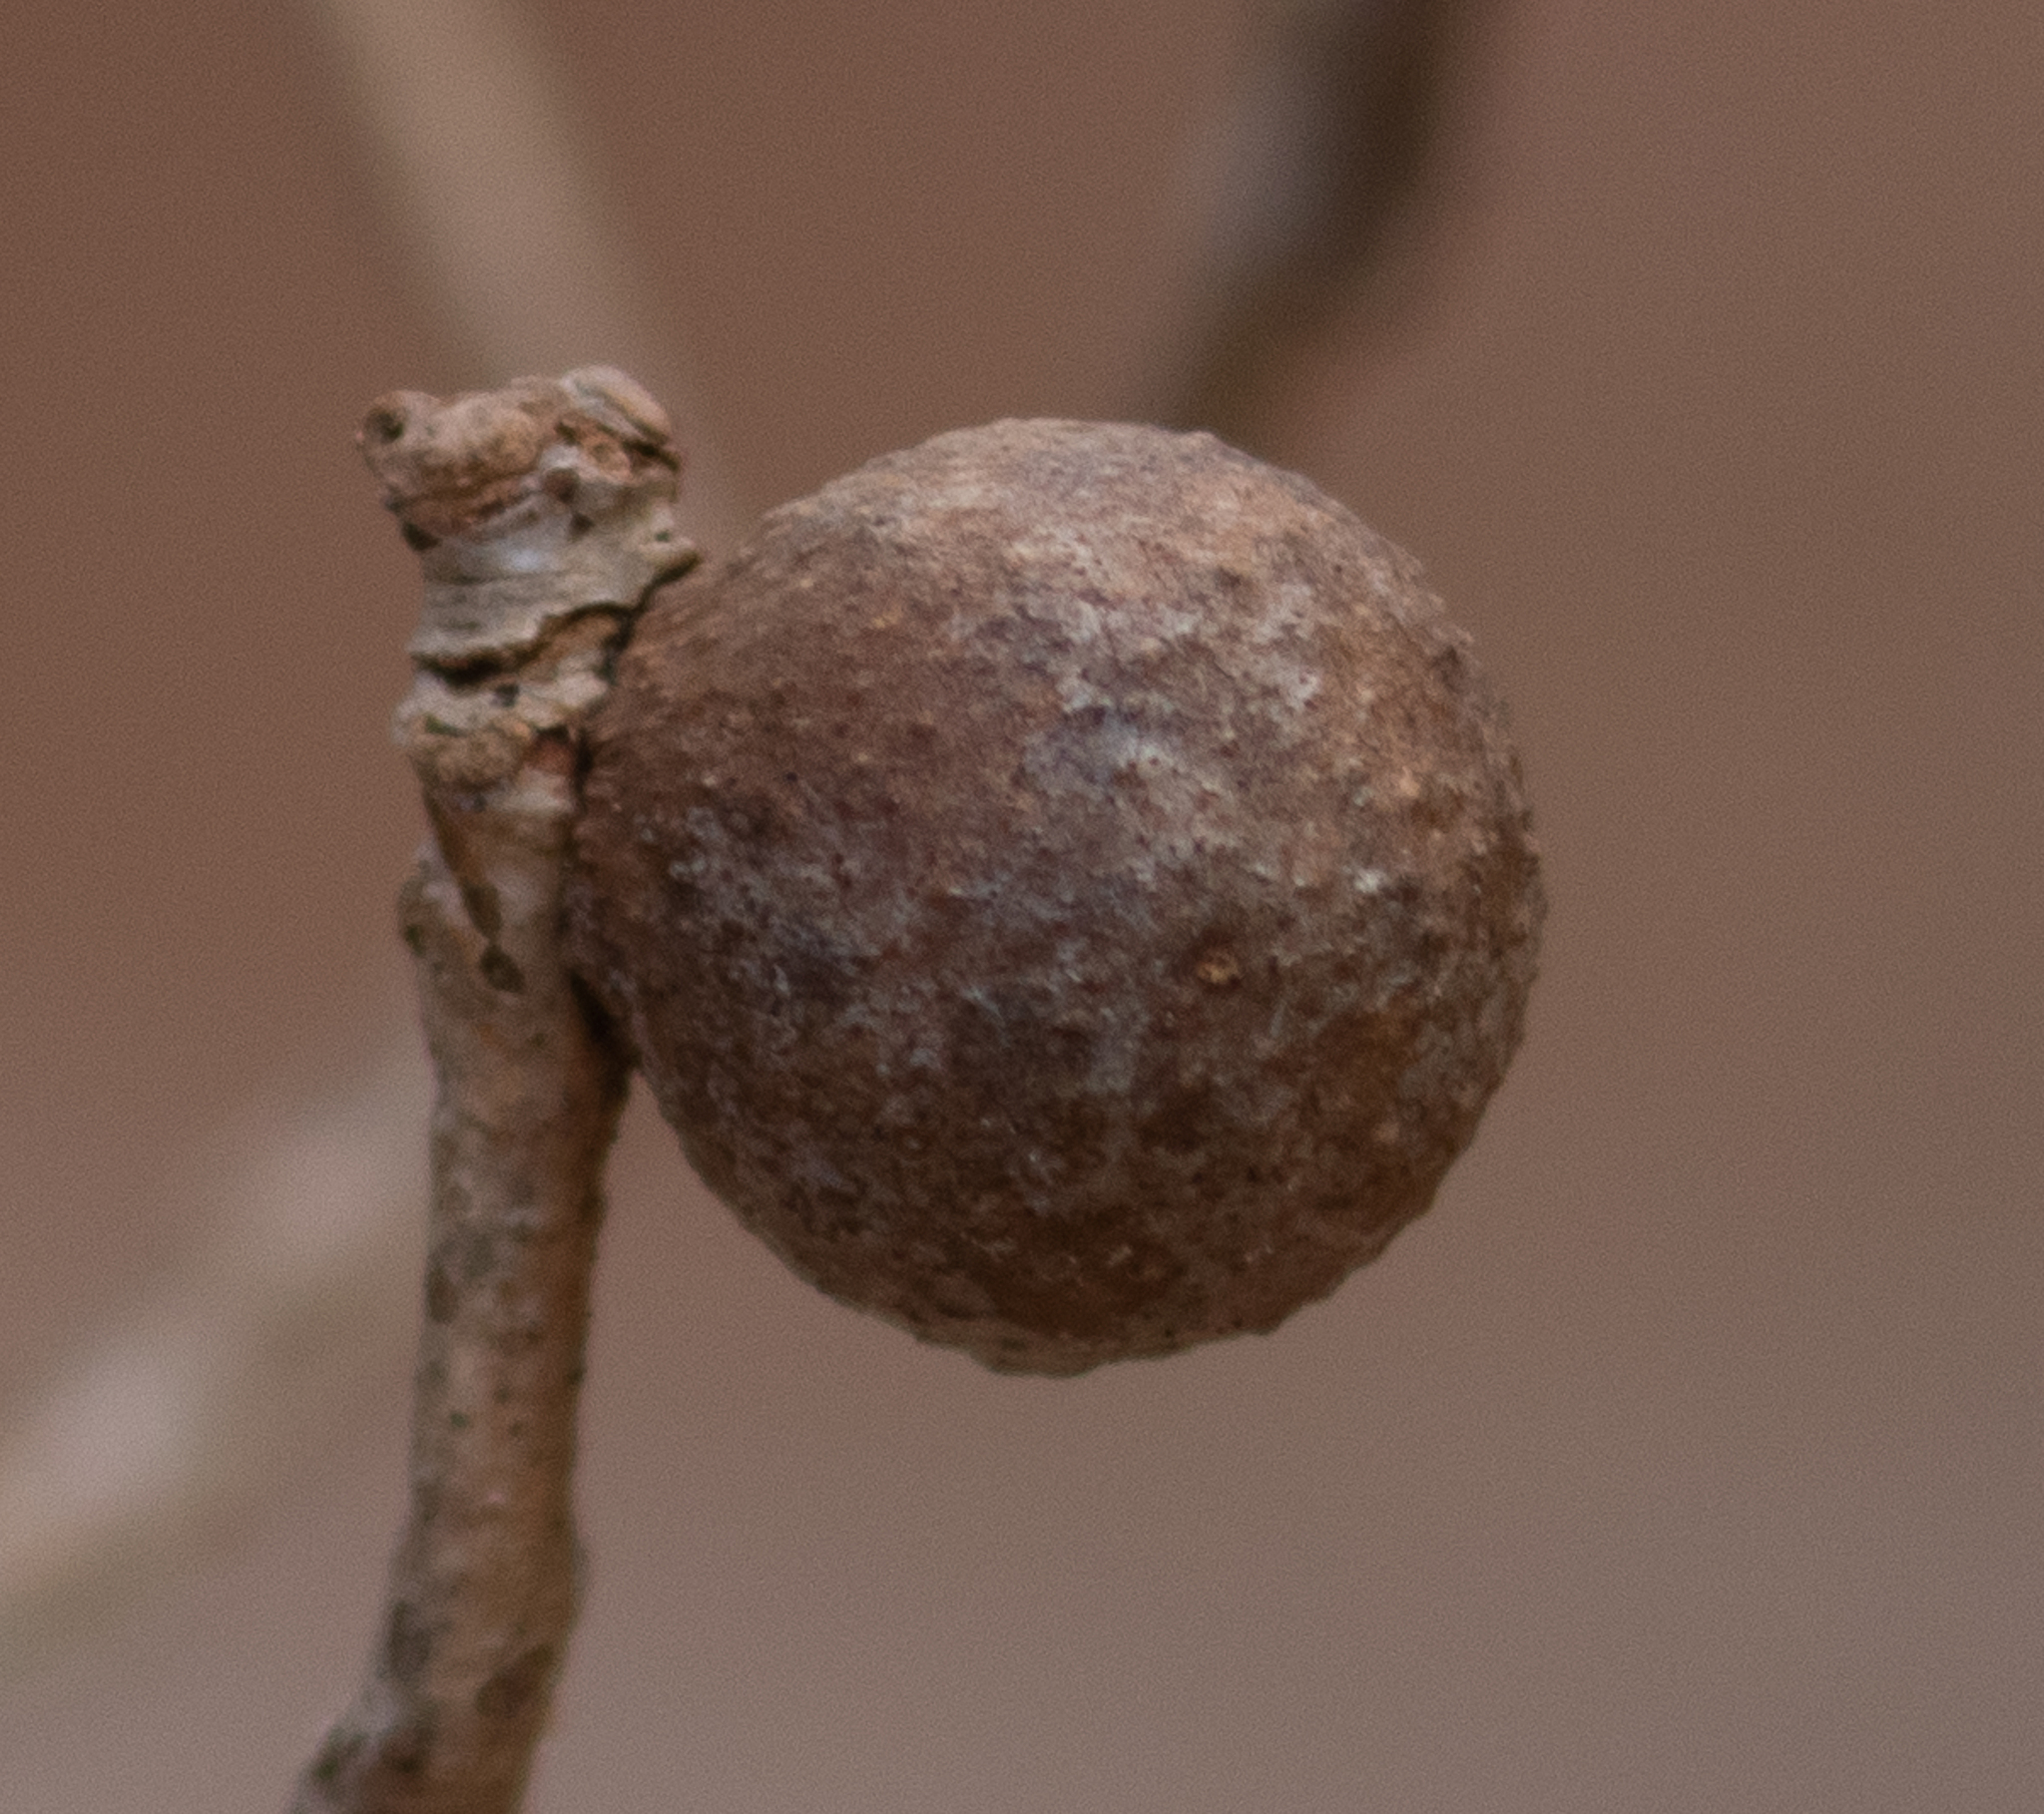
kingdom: Animalia
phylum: Arthropoda
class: Insecta
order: Hymenoptera
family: Cynipidae
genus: Disholcaspis
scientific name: Disholcaspis quercusglobulus
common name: Round bullet gall wasp
